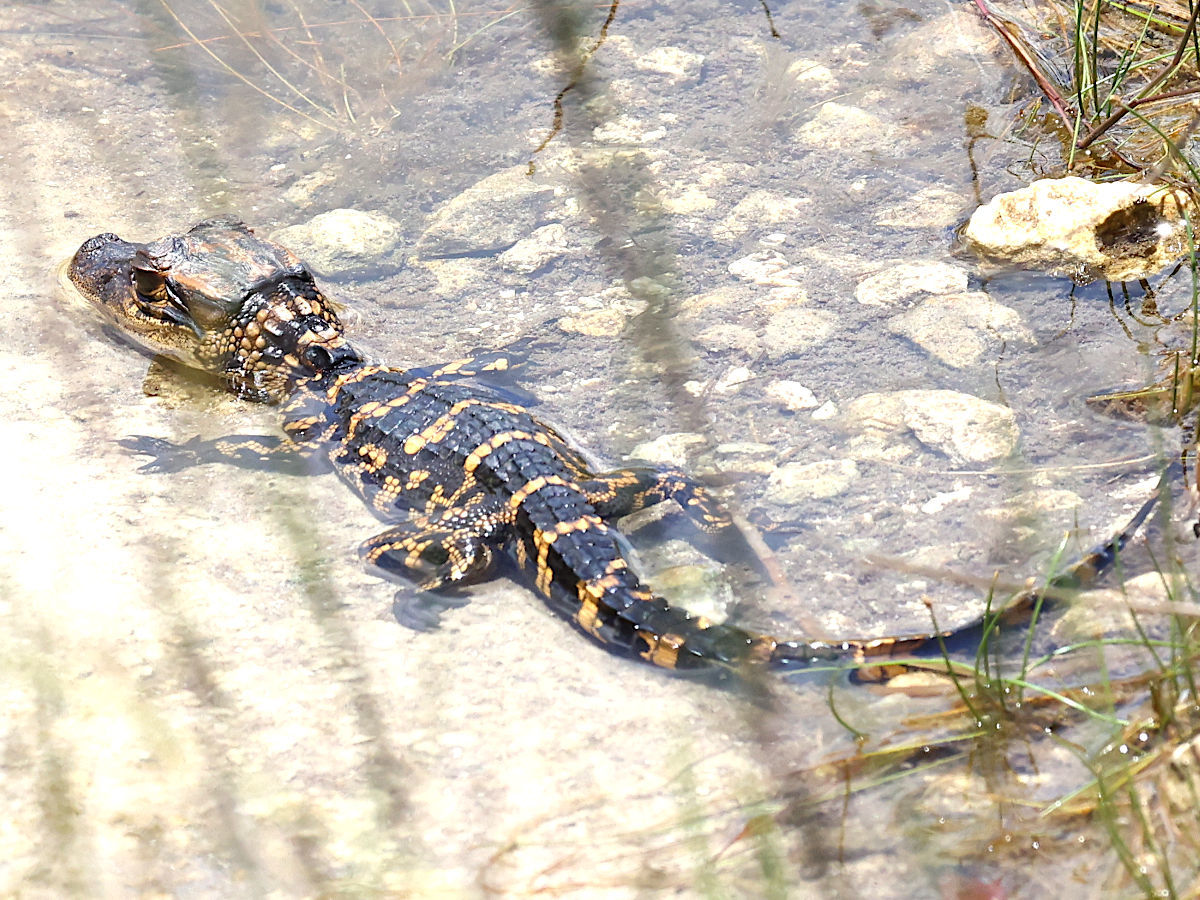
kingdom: Animalia
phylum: Chordata
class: Crocodylia
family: Alligatoridae
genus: Alligator
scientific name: Alligator mississippiensis
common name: American alligator
